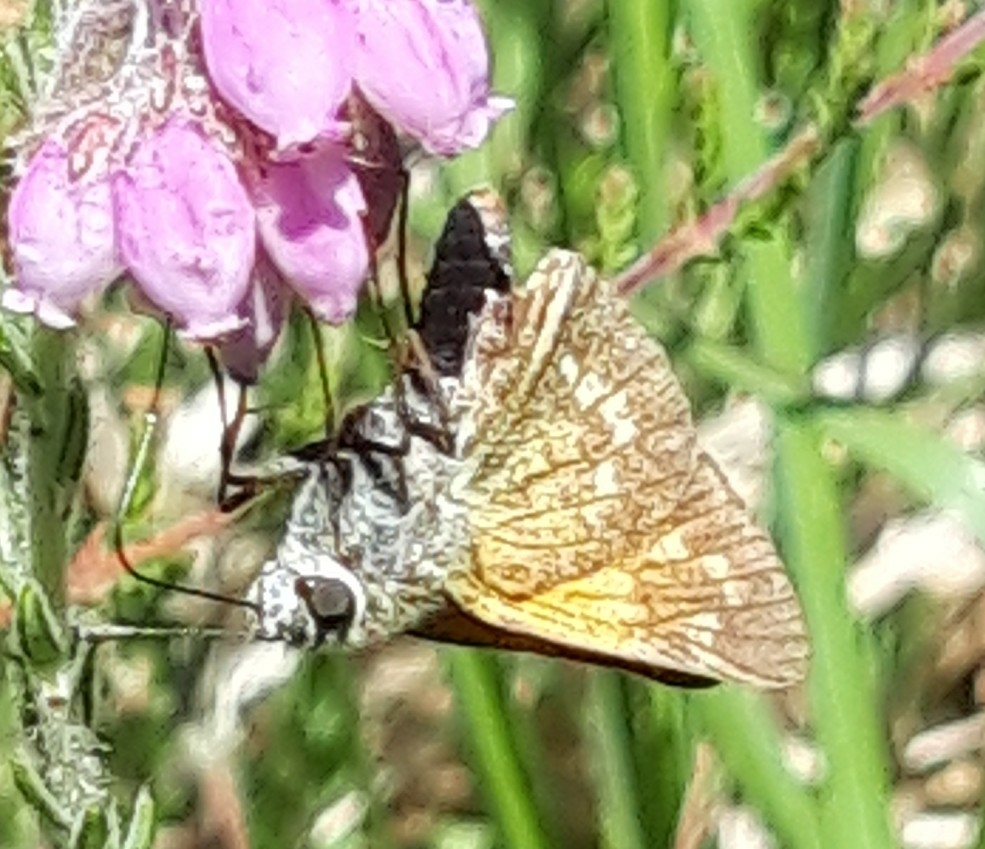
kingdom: Animalia
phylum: Arthropoda
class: Insecta
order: Lepidoptera
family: Hesperiidae
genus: Ochlodes
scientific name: Ochlodes venata
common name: Large skipper
